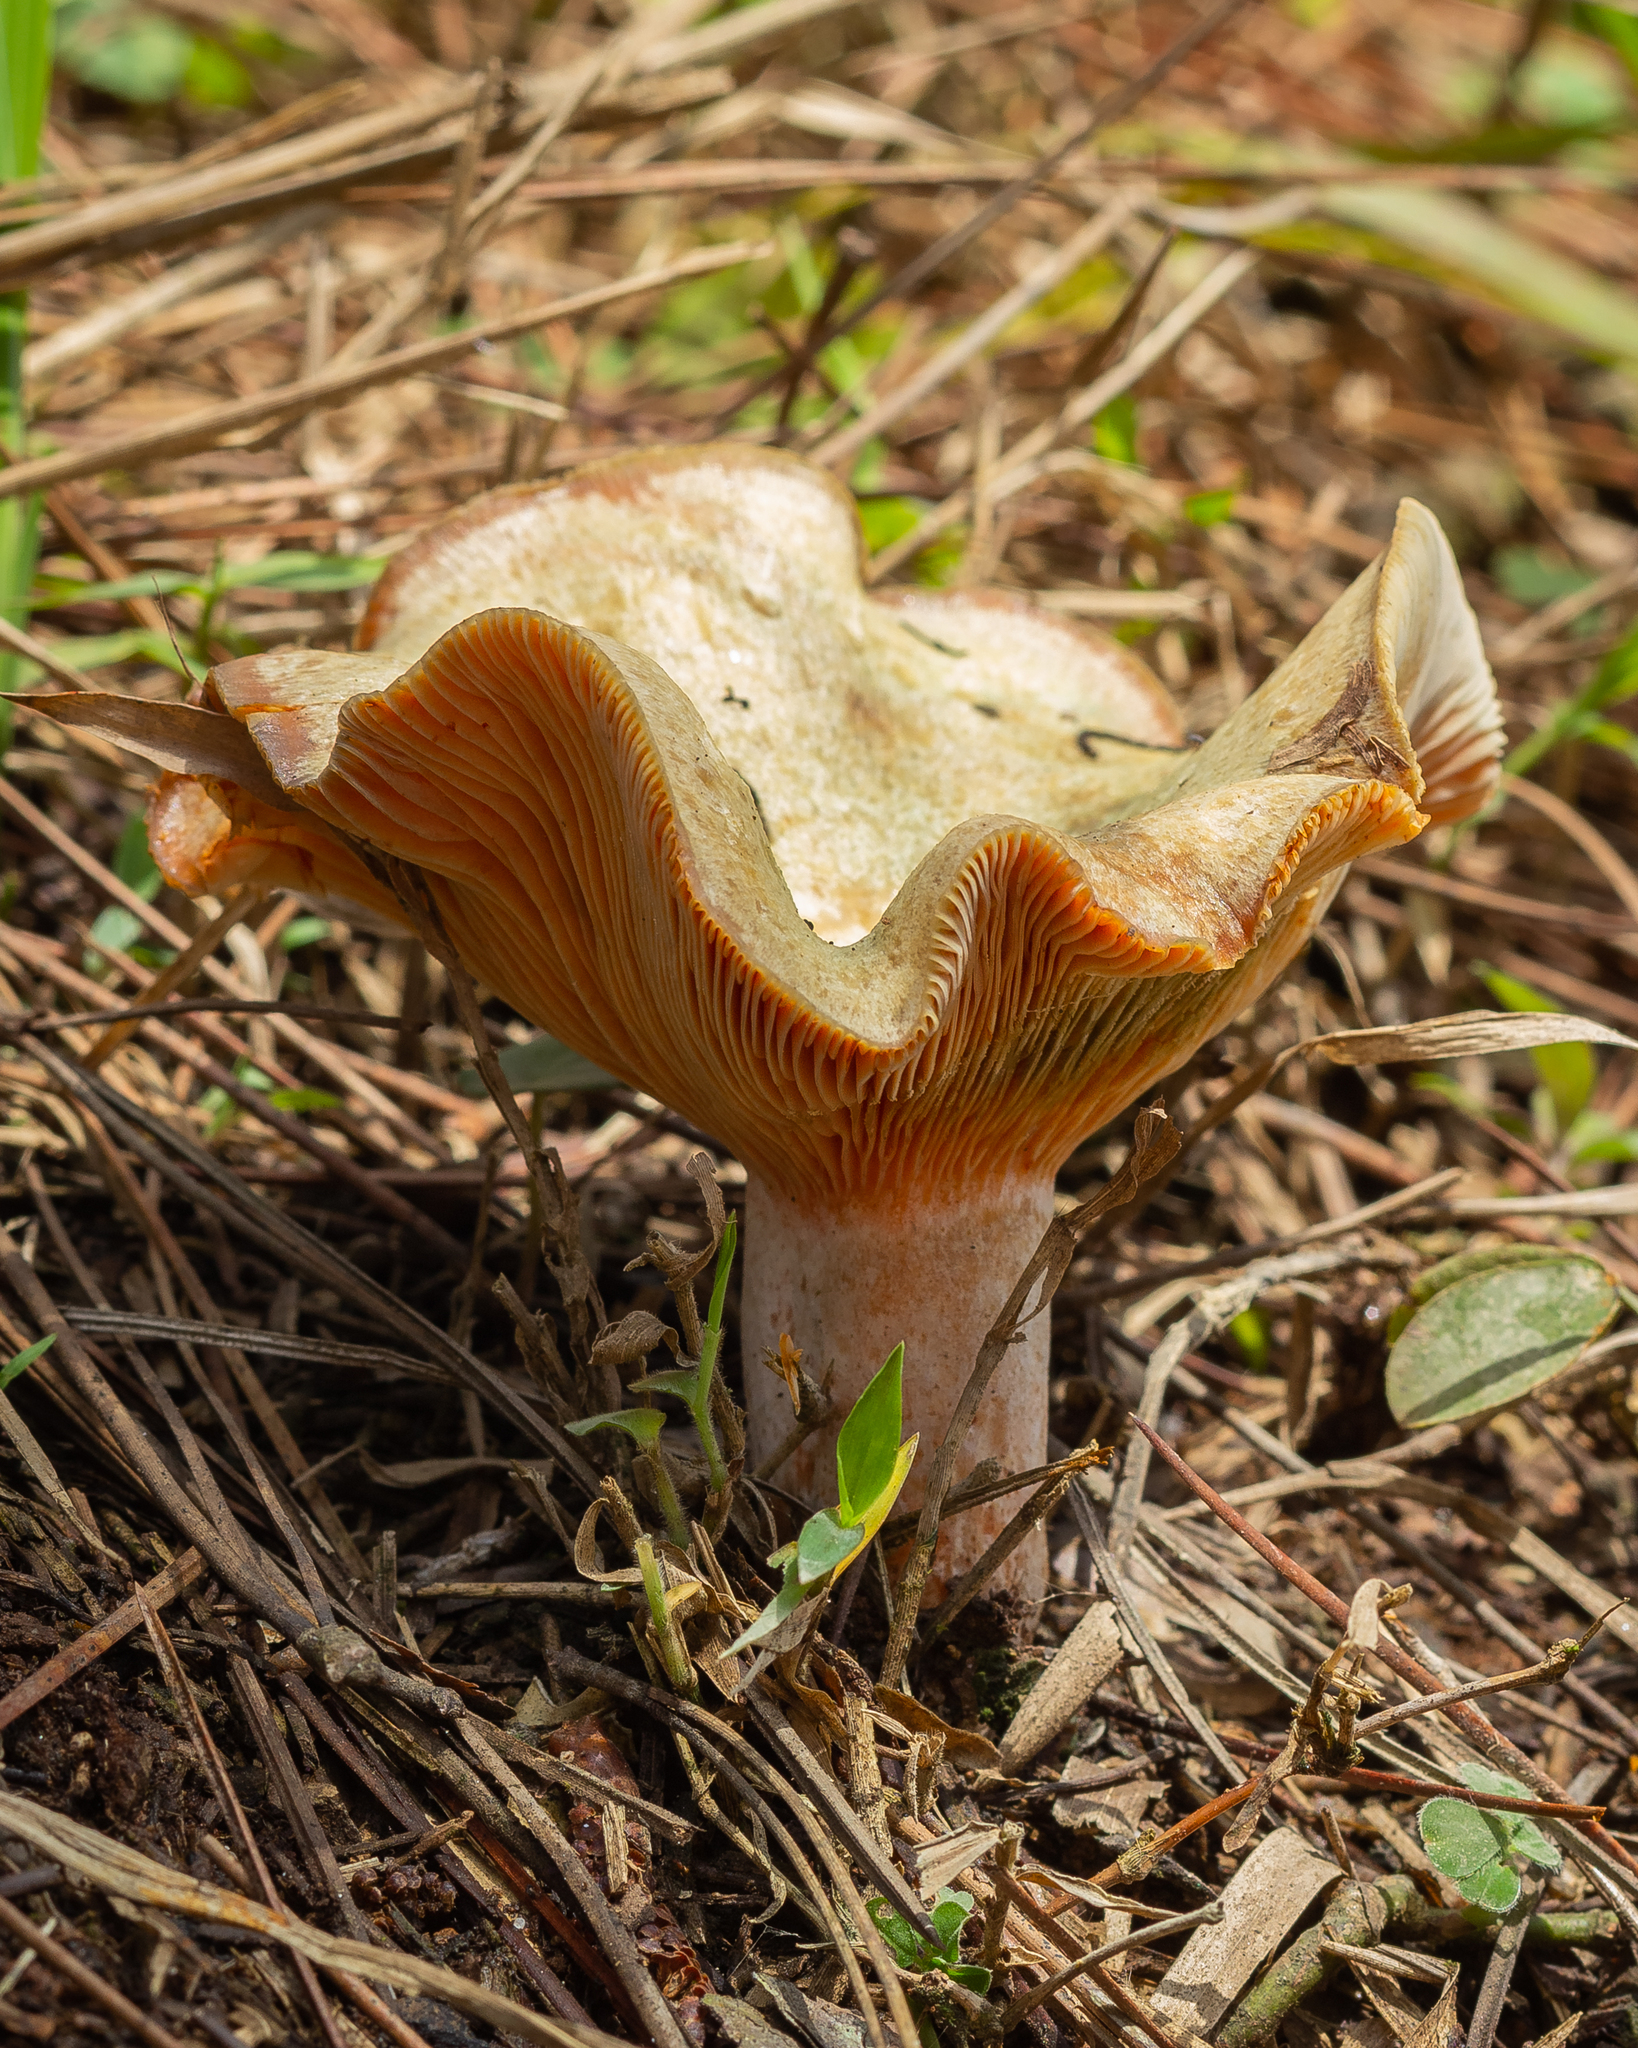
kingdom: Fungi
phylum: Basidiomycota
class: Agaricomycetes
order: Russulales
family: Russulaceae
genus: Lactarius
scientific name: Lactarius quieticolor
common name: Carrot milkcap
